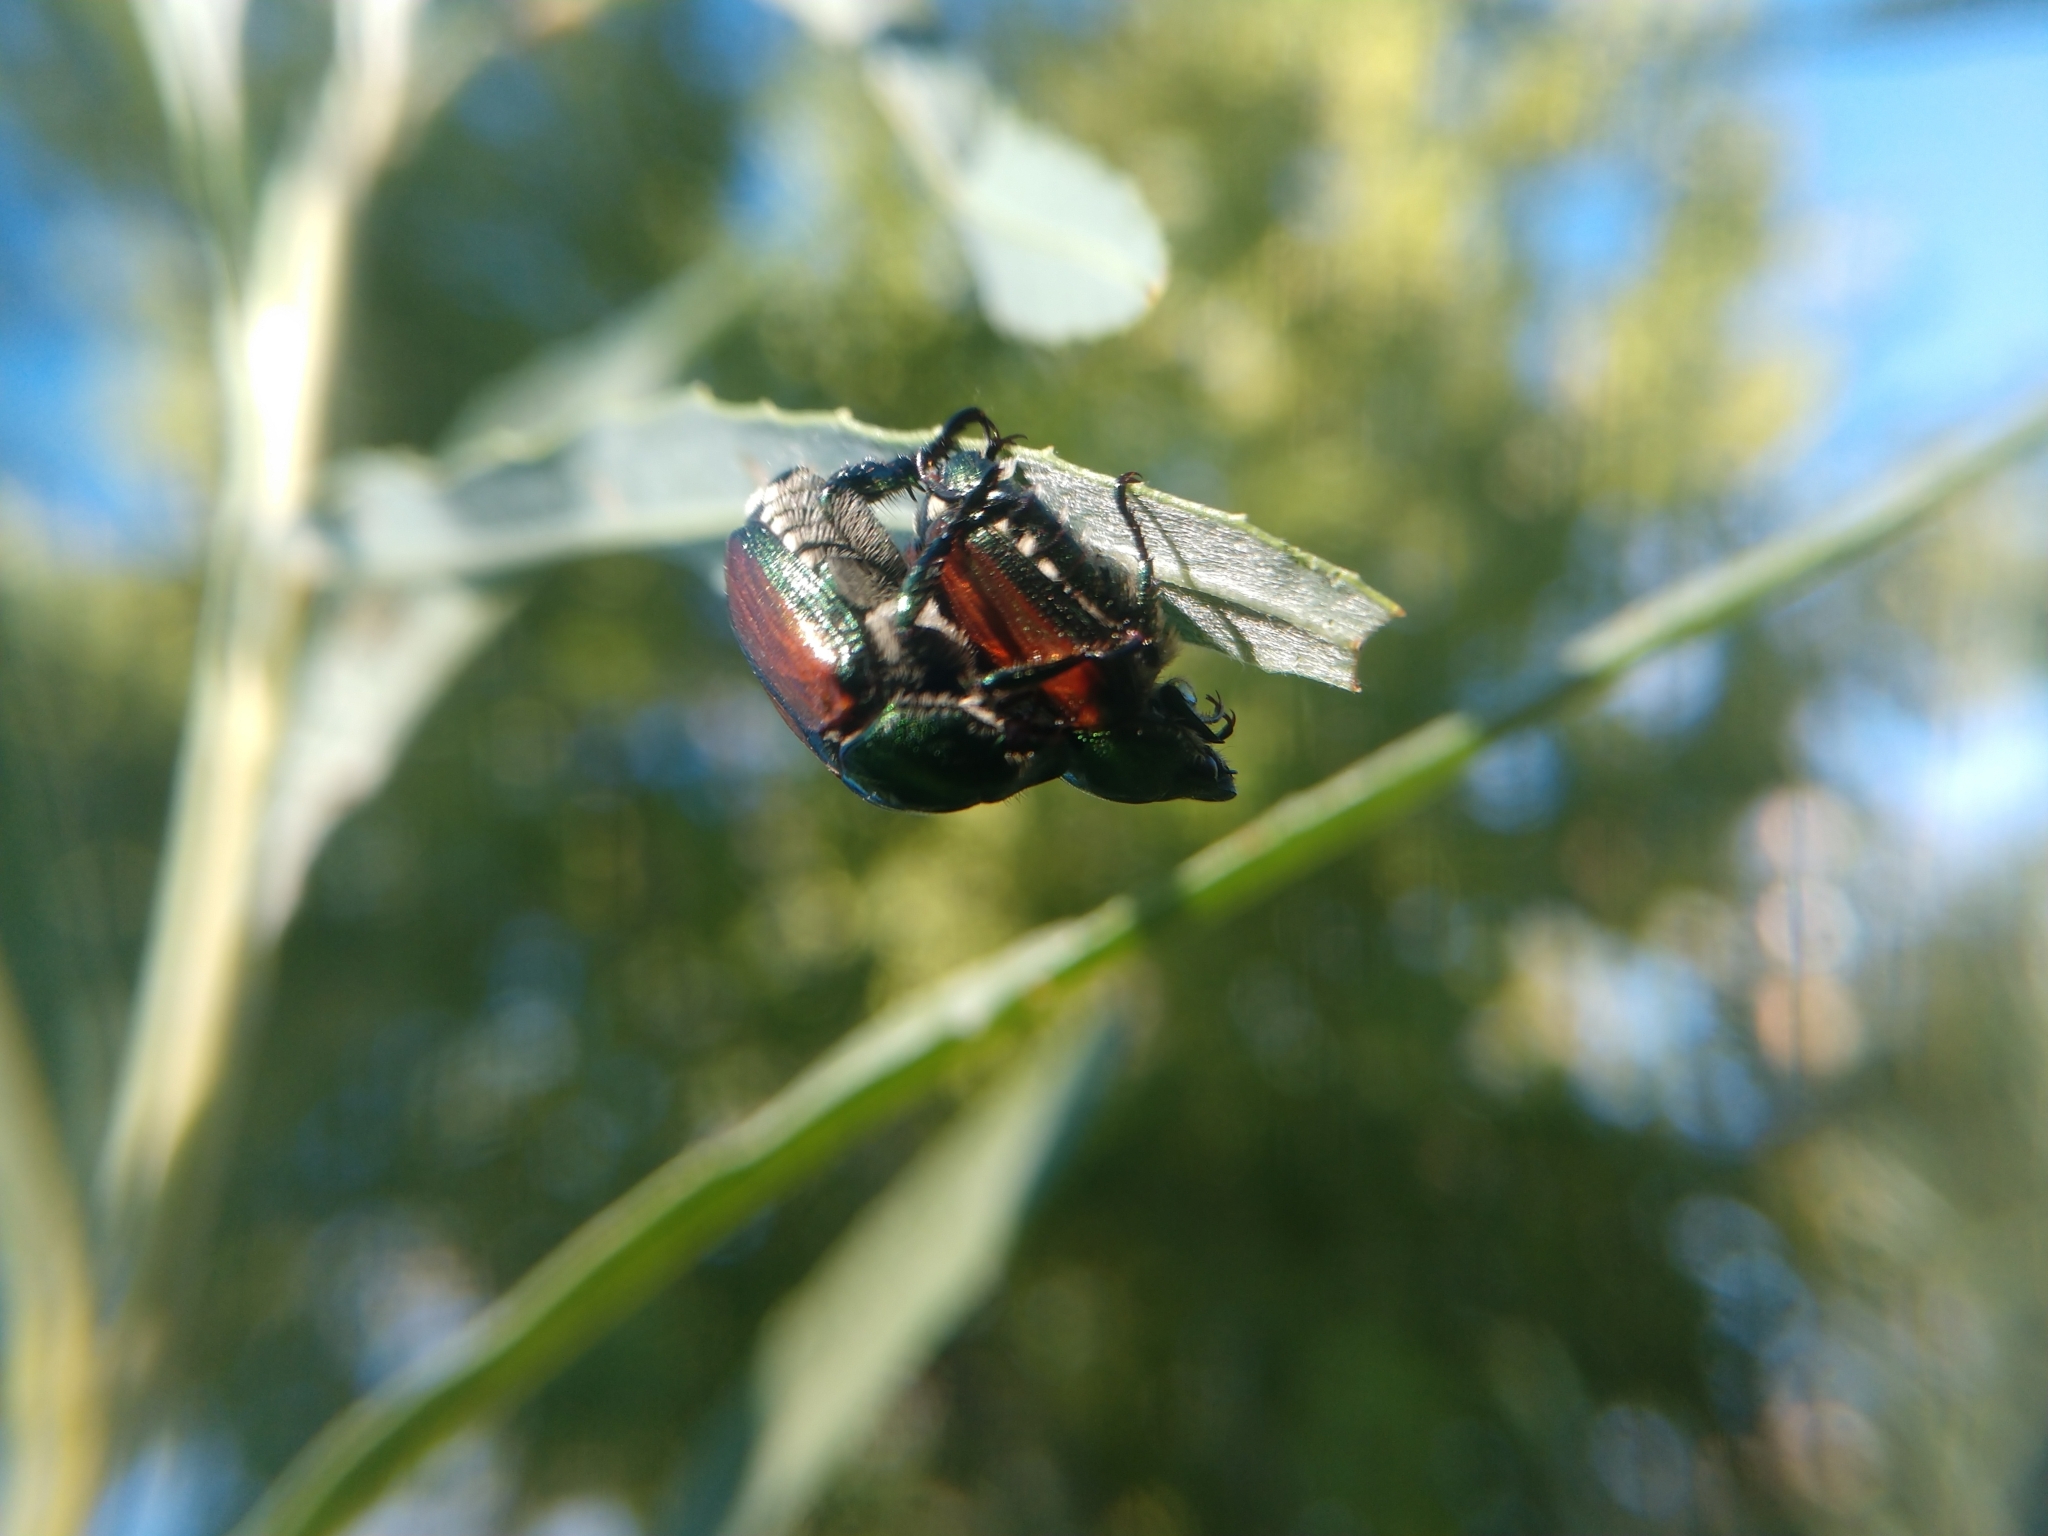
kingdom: Animalia
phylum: Arthropoda
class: Insecta
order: Coleoptera
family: Scarabaeidae
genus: Popillia
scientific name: Popillia japonica
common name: Japanese beetle
